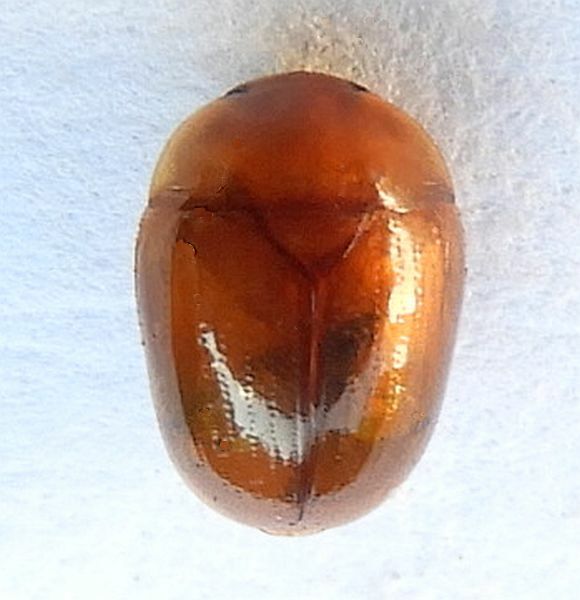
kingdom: Animalia
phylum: Arthropoda
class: Insecta
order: Coleoptera
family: Nitidulidae
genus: Pallodes
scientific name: Pallodes pallidus
